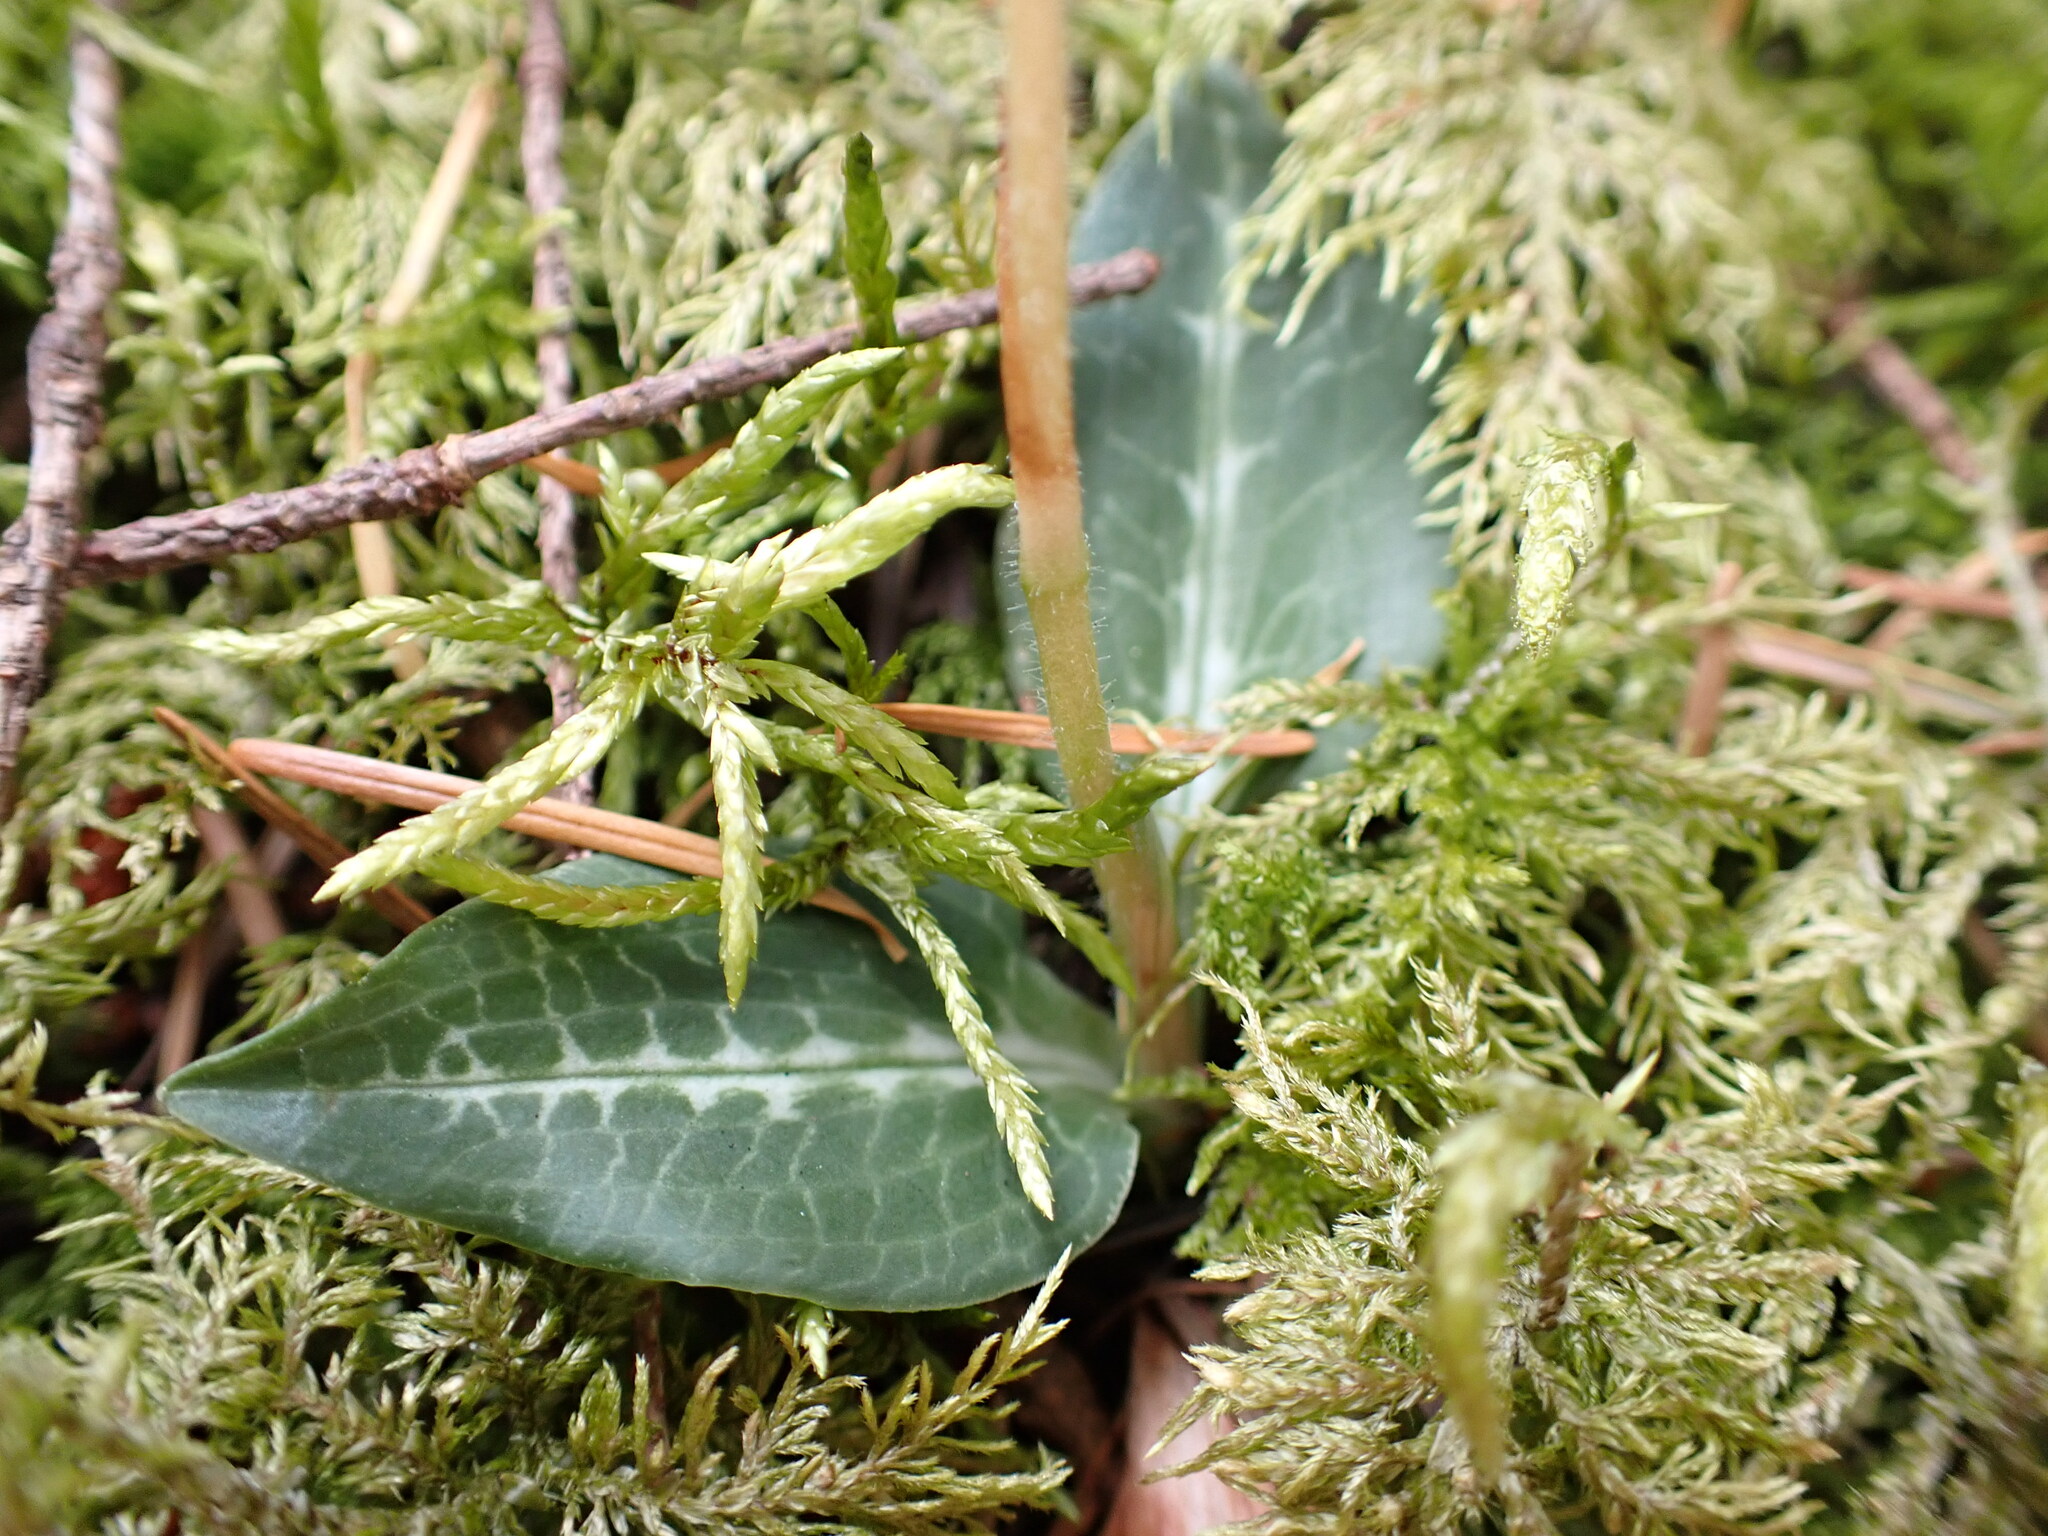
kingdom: Plantae
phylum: Tracheophyta
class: Liliopsida
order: Asparagales
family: Orchidaceae
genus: Goodyera
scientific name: Goodyera oblongifolia
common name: Giant rattlesnake-plantain
